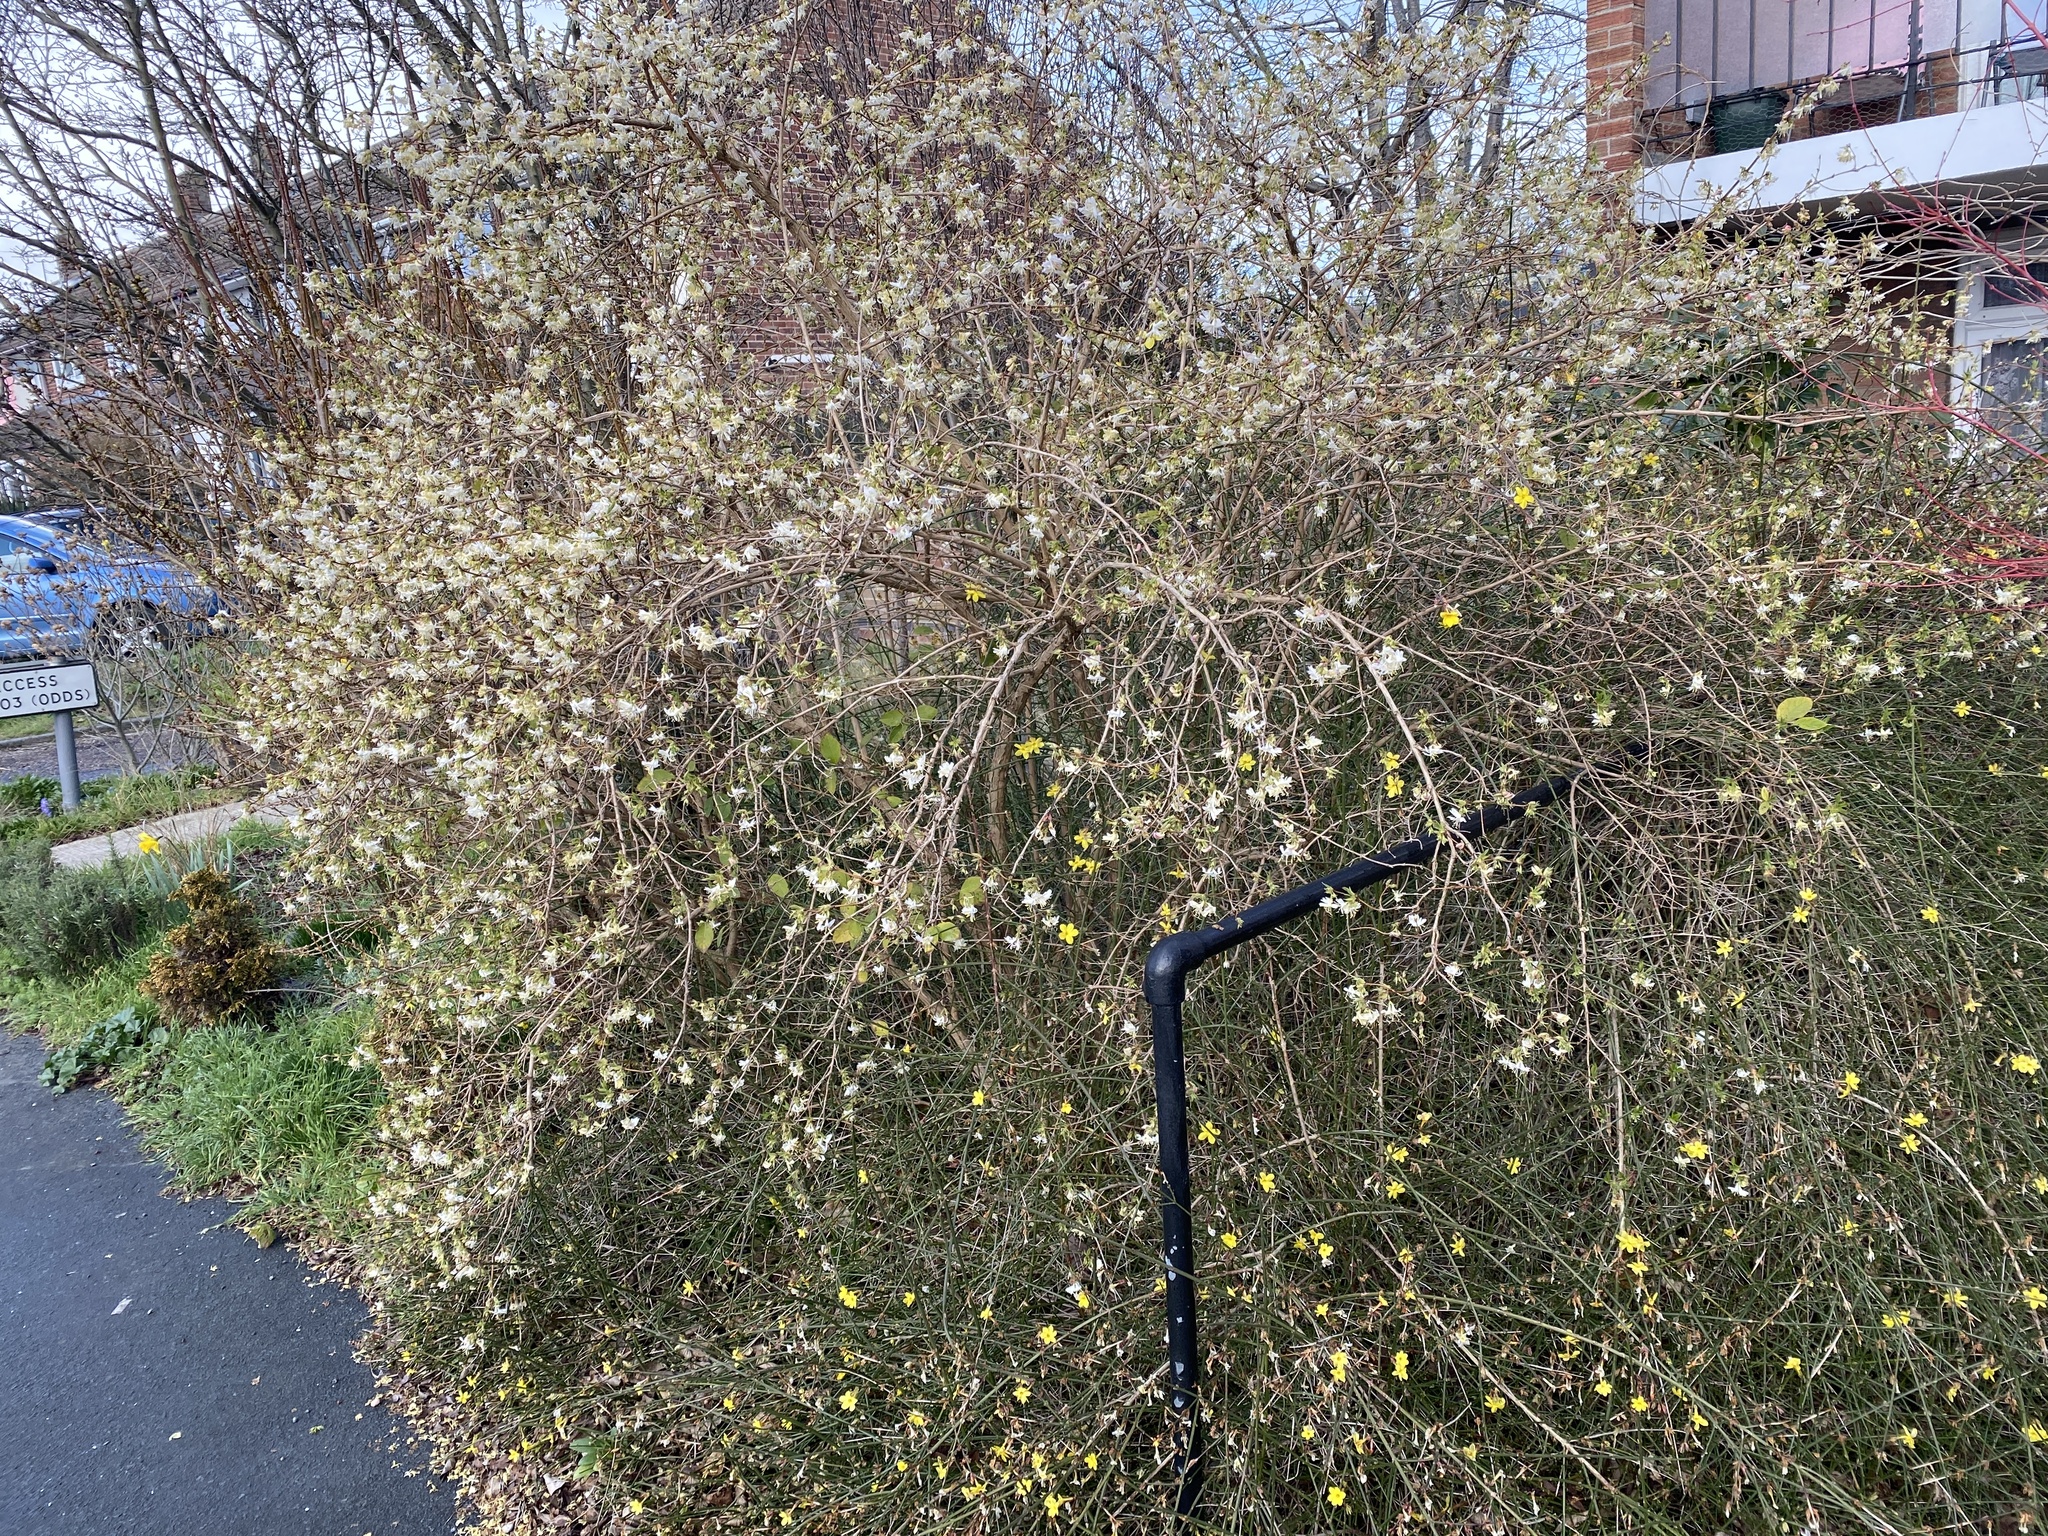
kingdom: Plantae
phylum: Tracheophyta
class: Magnoliopsida
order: Dipsacales
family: Caprifoliaceae
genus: Lonicera
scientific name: Lonicera fragrantissima
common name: Fragrant honeysuckle
